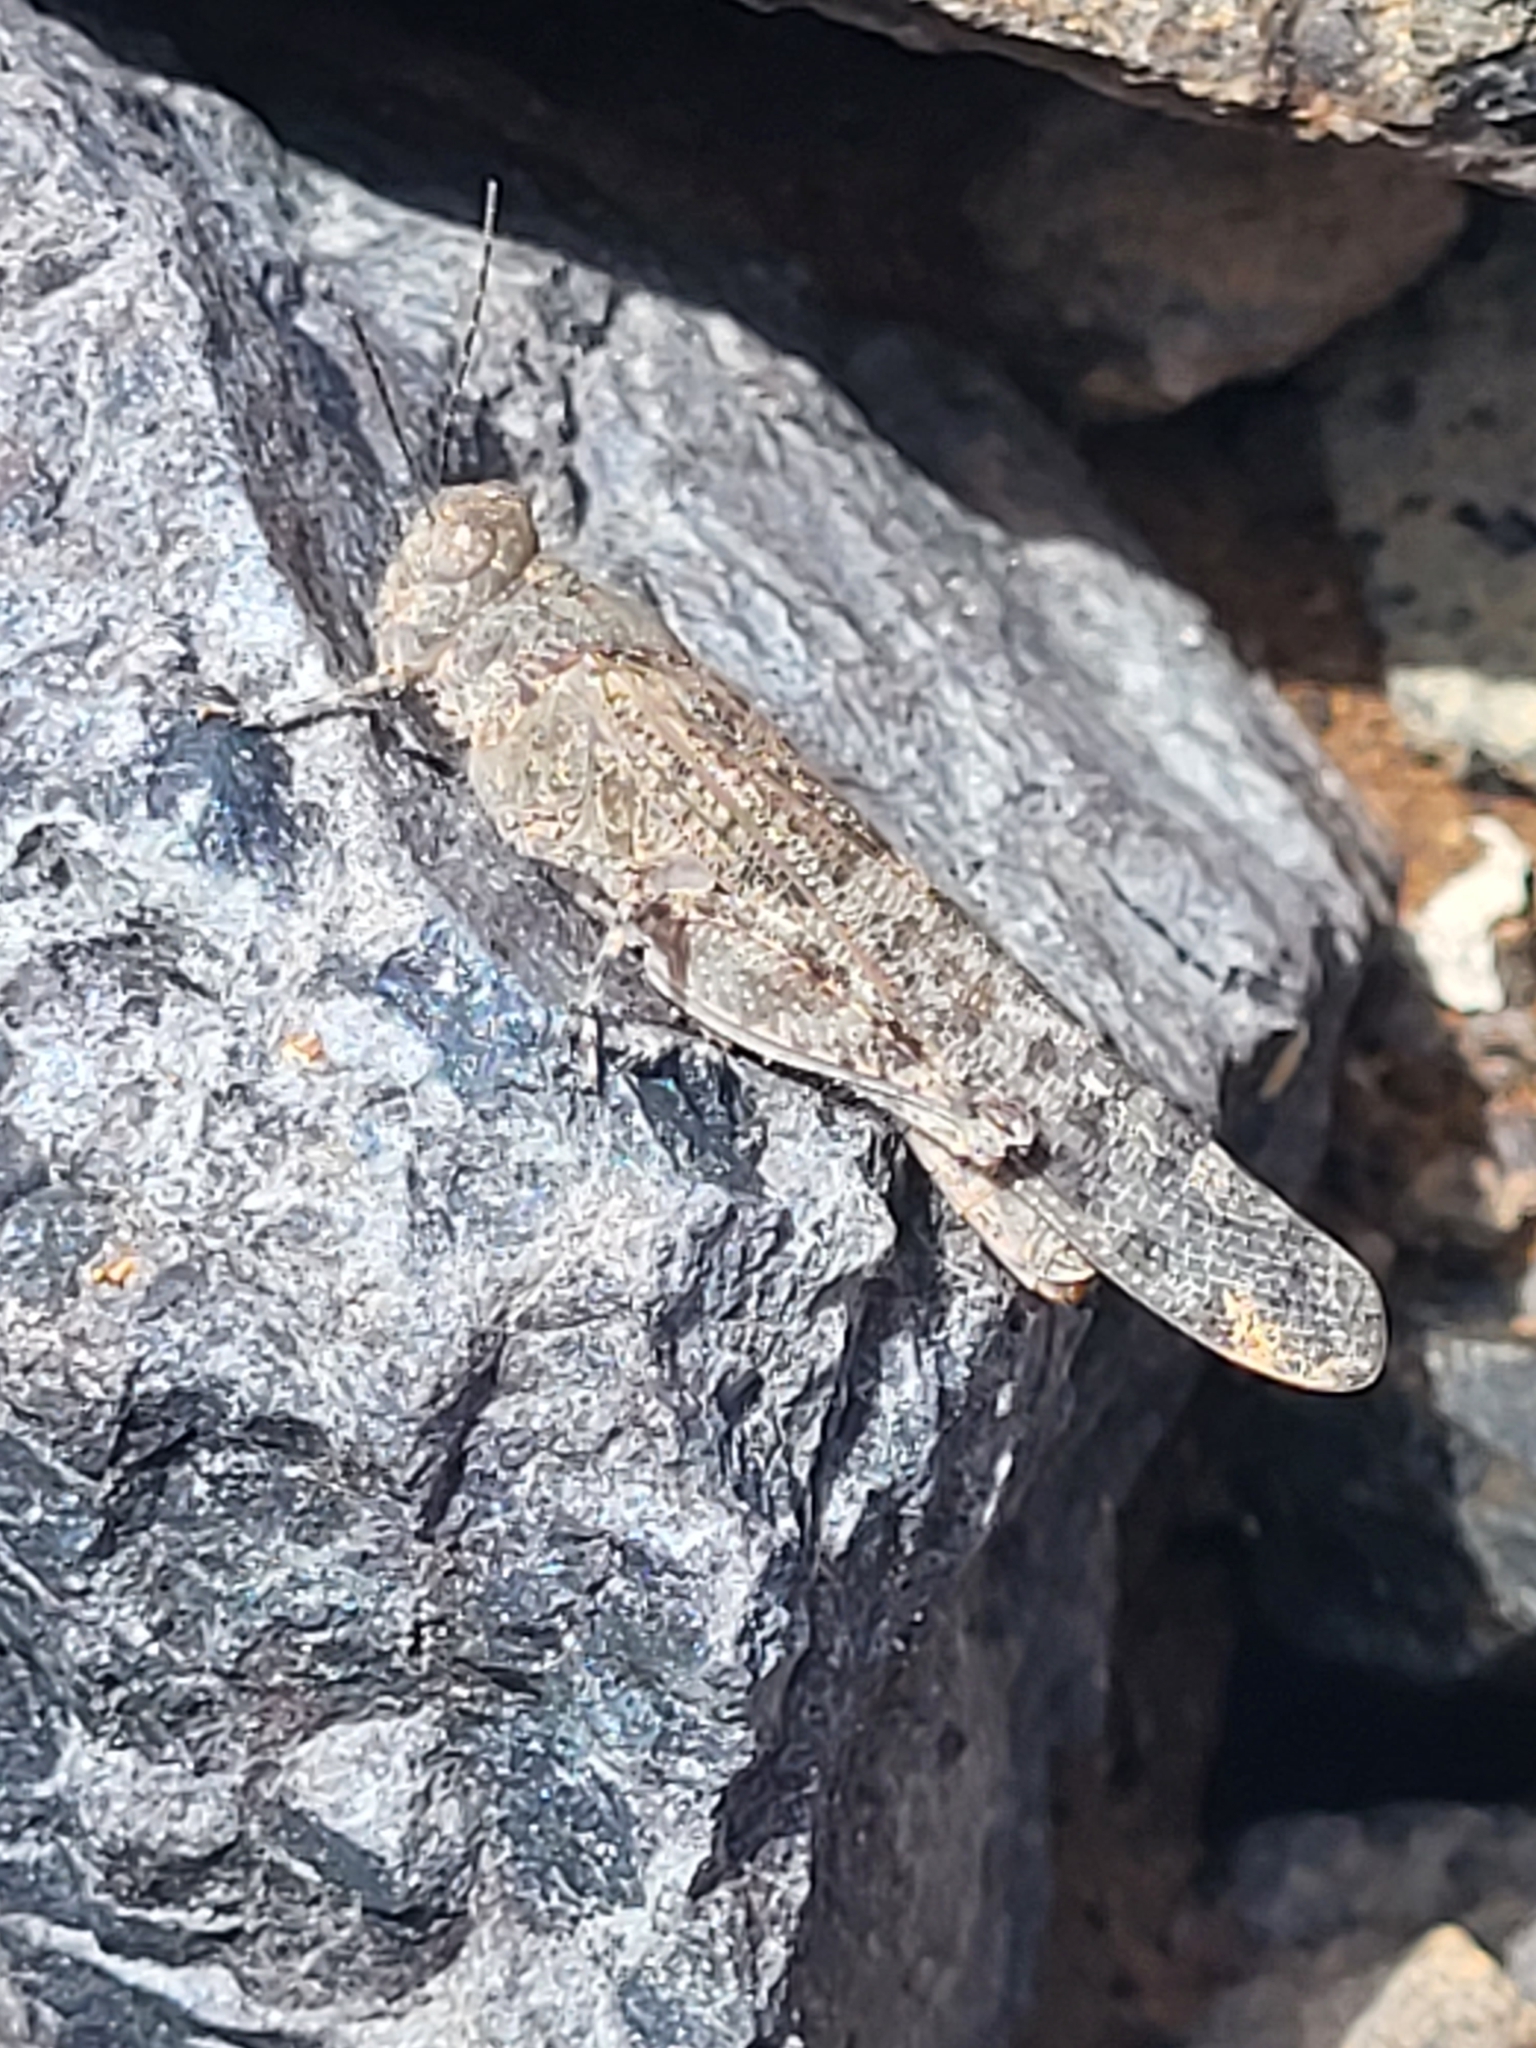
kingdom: Animalia
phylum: Arthropoda
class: Insecta
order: Orthoptera
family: Acrididae
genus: Sphingonotus
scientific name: Sphingonotus rubescens
